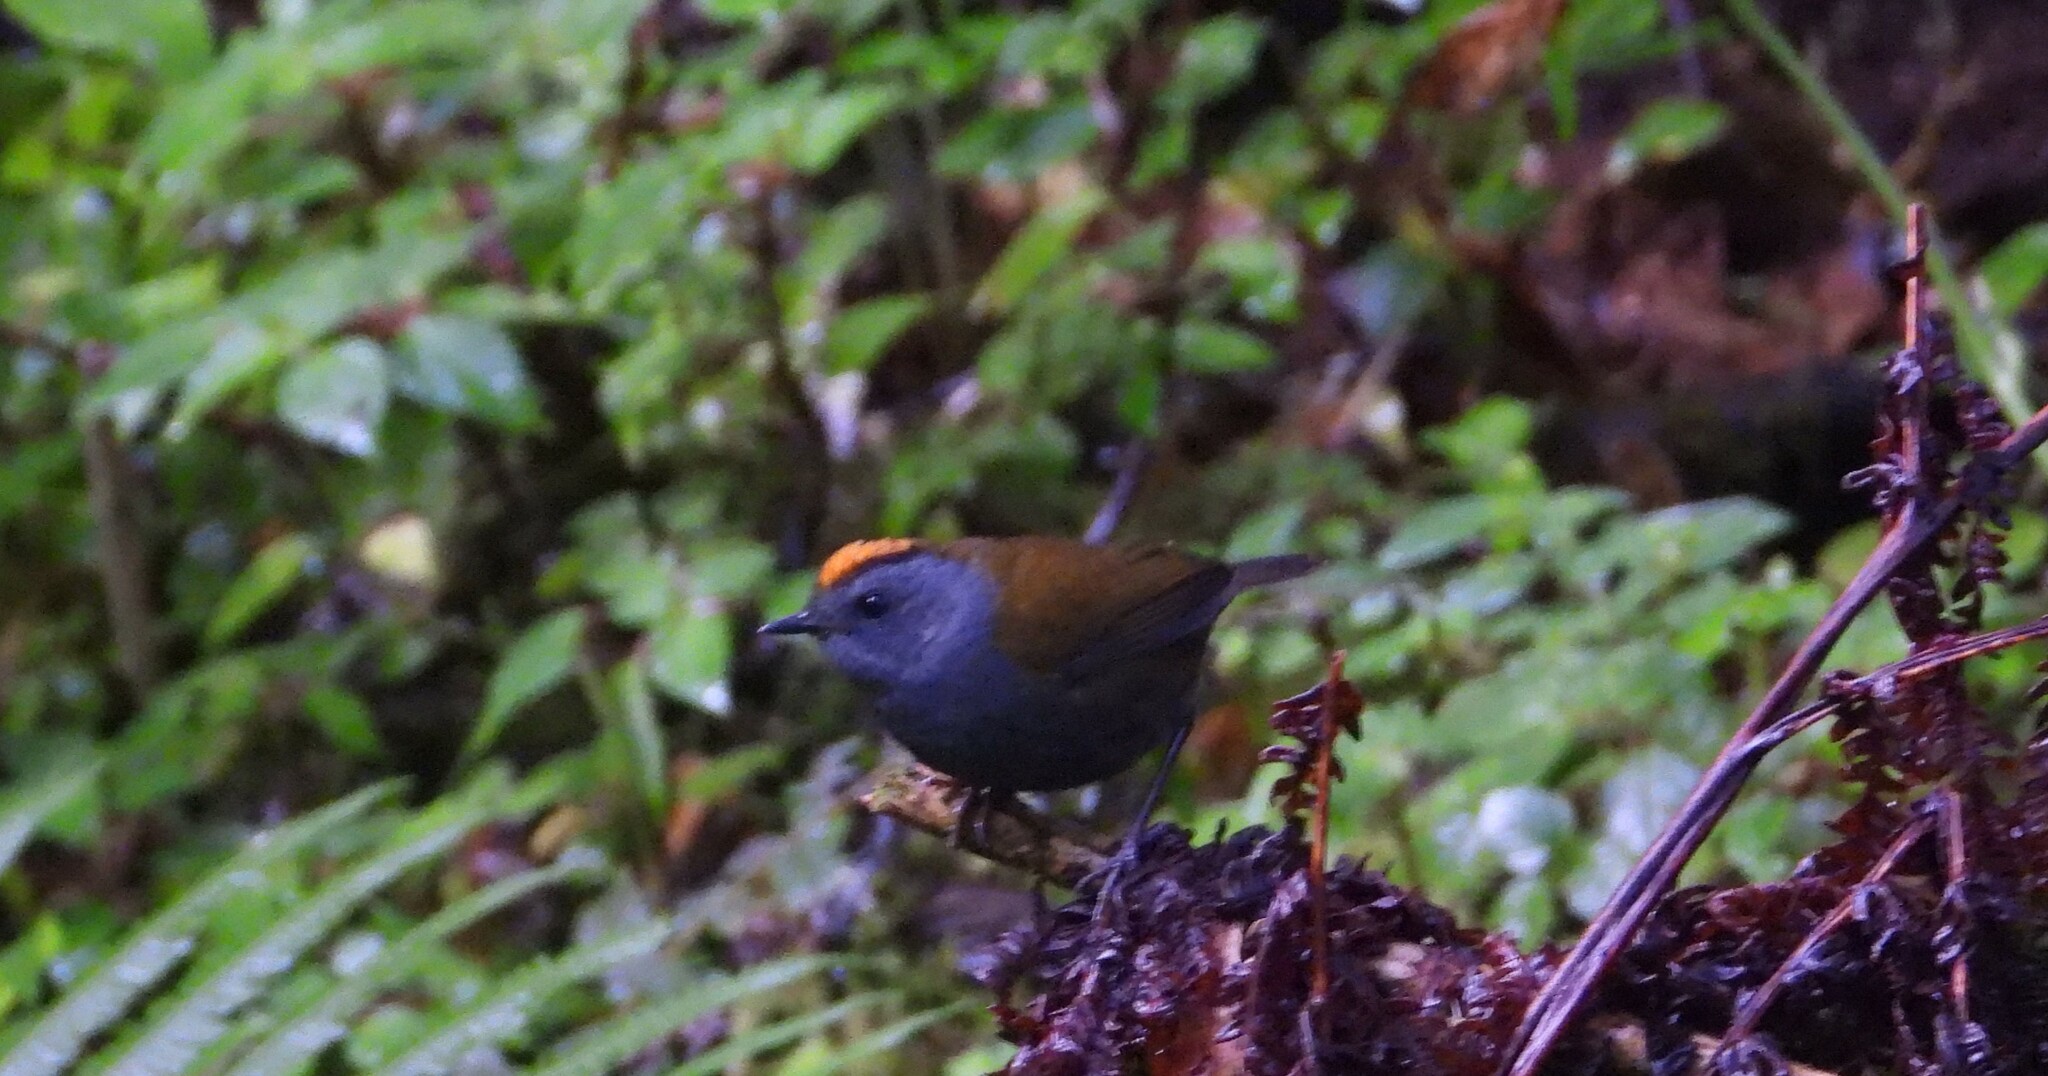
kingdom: Animalia
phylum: Chordata
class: Aves
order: Passeriformes
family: Parulidae
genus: Zeledonia
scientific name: Zeledonia coronata
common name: Wrenthrush
